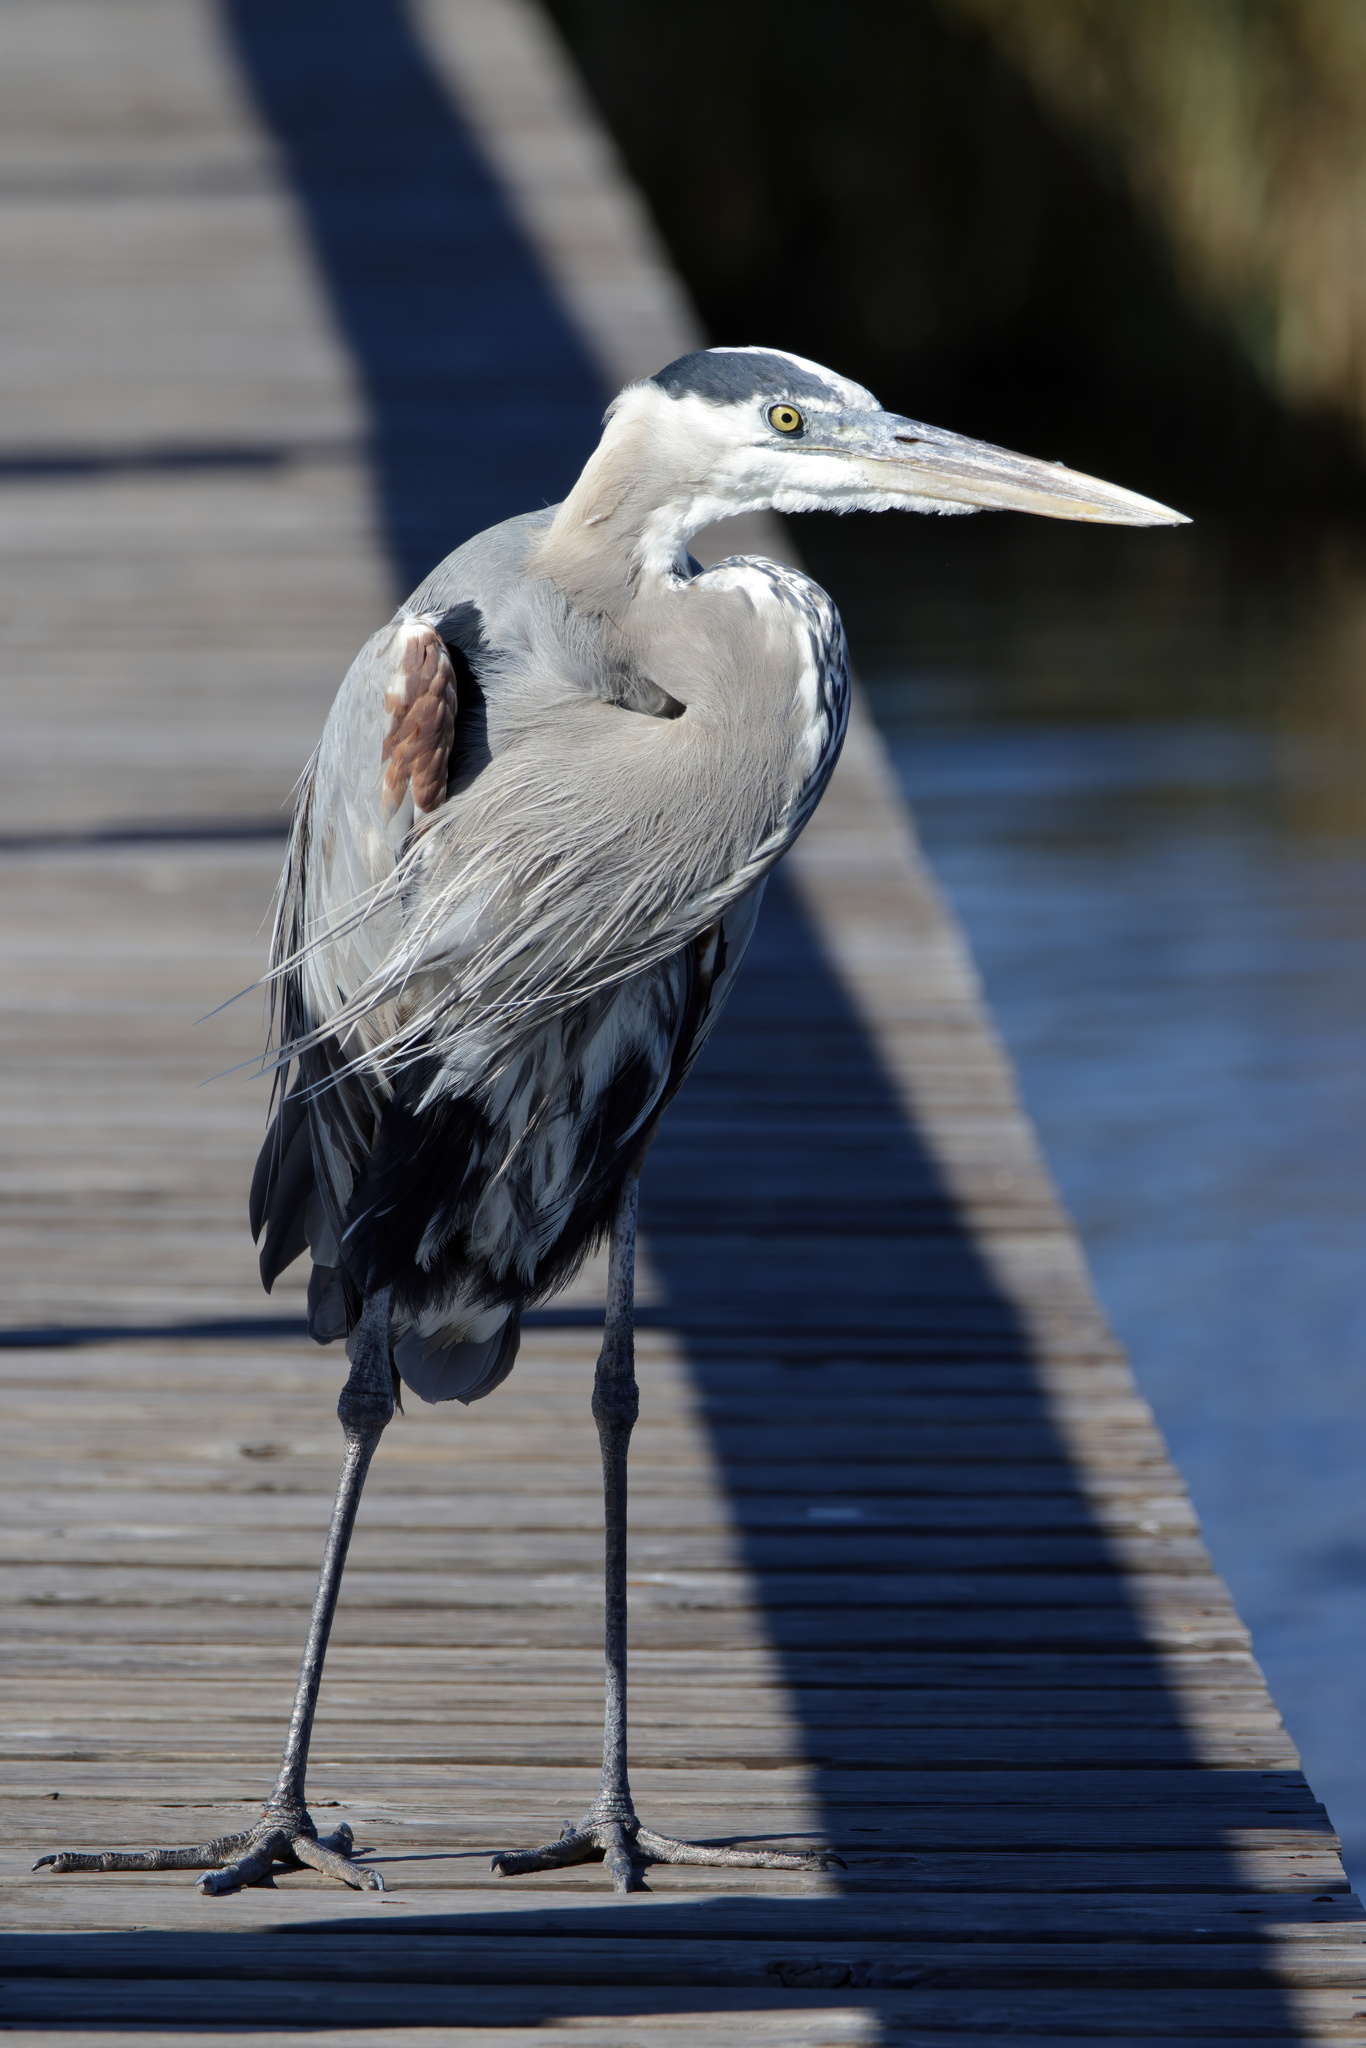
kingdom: Animalia
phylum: Chordata
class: Aves
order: Pelecaniformes
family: Ardeidae
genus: Ardea
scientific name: Ardea herodias
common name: Great blue heron
